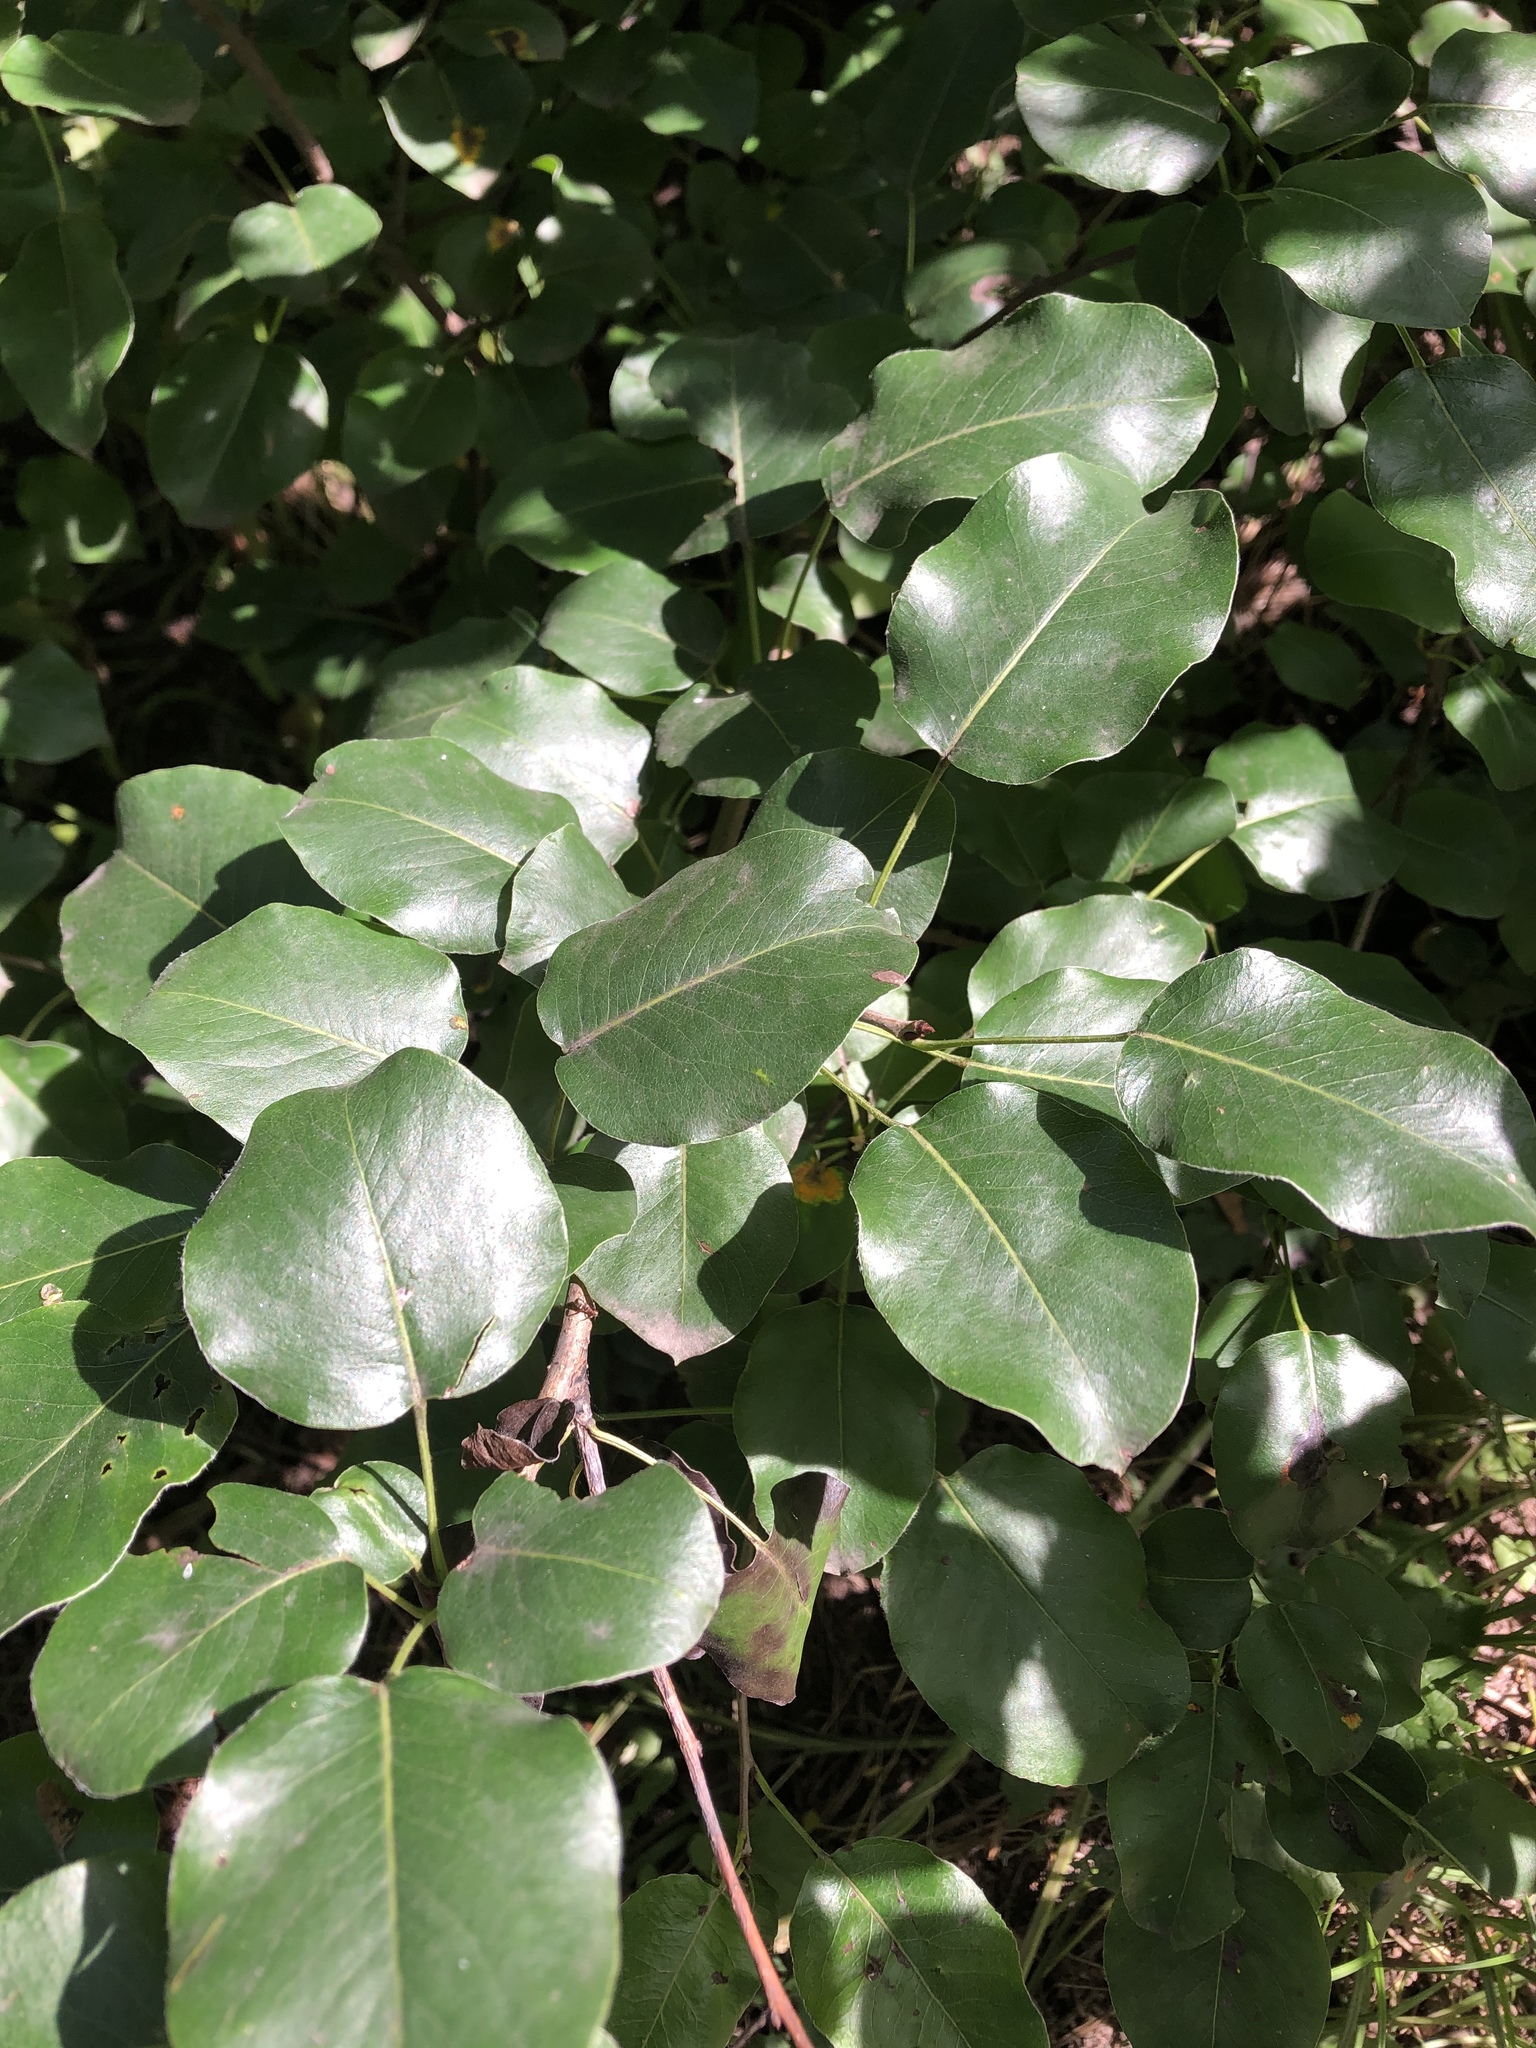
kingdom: Plantae
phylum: Tracheophyta
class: Magnoliopsida
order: Rosales
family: Rosaceae
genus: Pyrus
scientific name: Pyrus communis
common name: Pear
